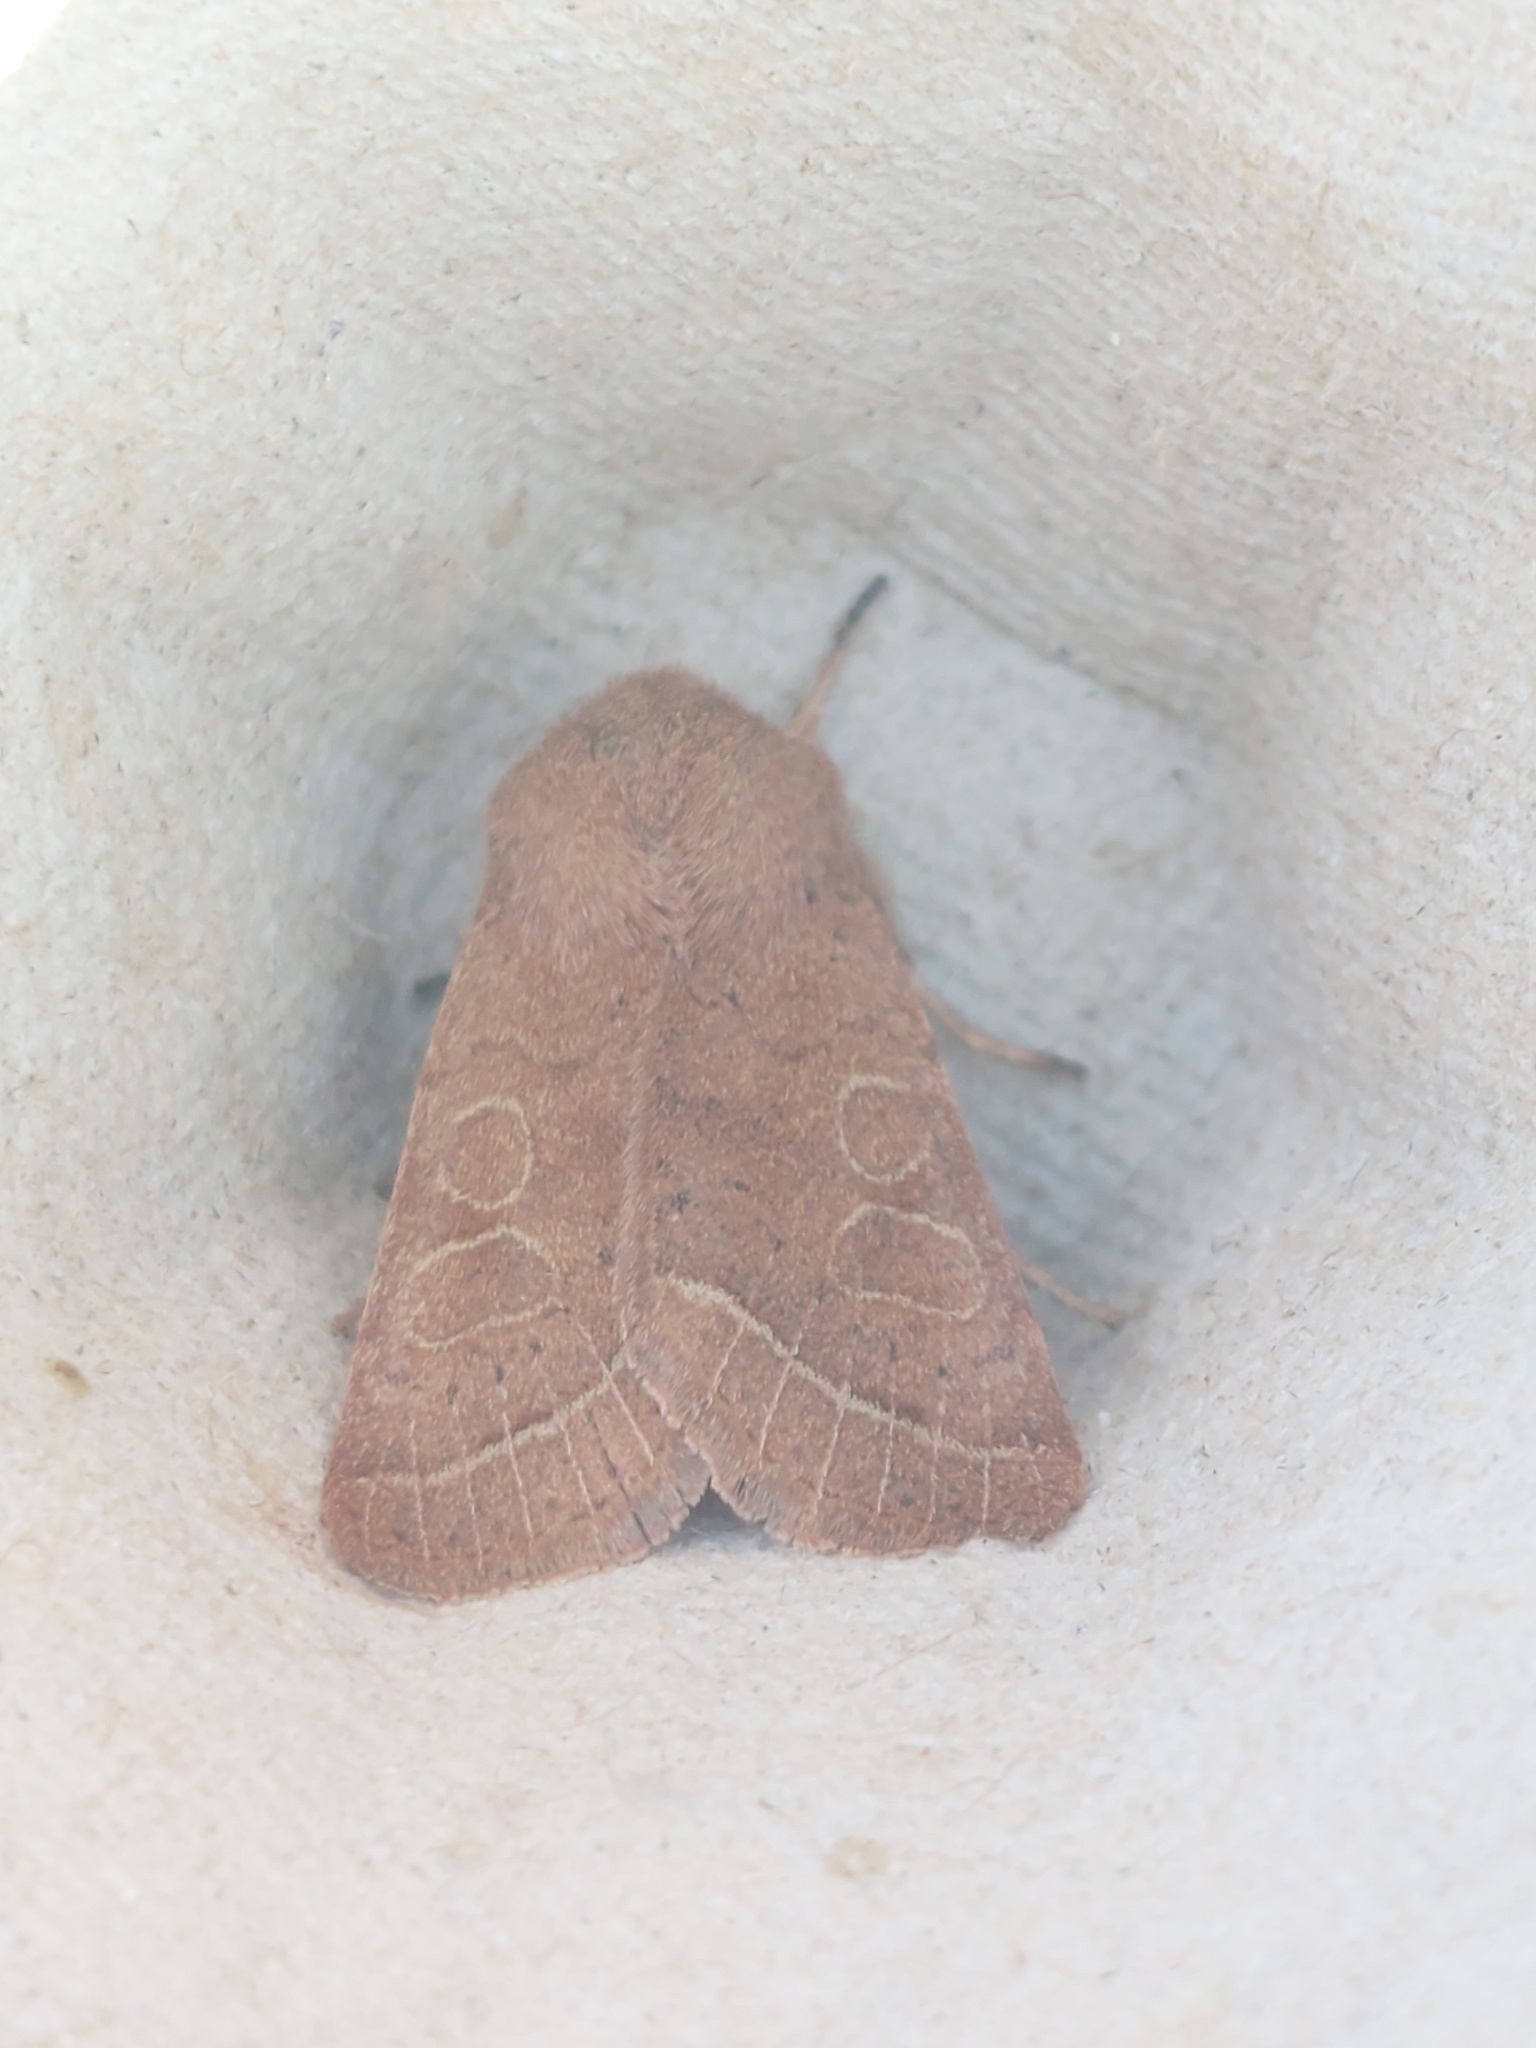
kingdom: Animalia
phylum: Arthropoda
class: Insecta
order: Lepidoptera
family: Noctuidae
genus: Orthosia
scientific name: Orthosia cerasi
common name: Common quaker
